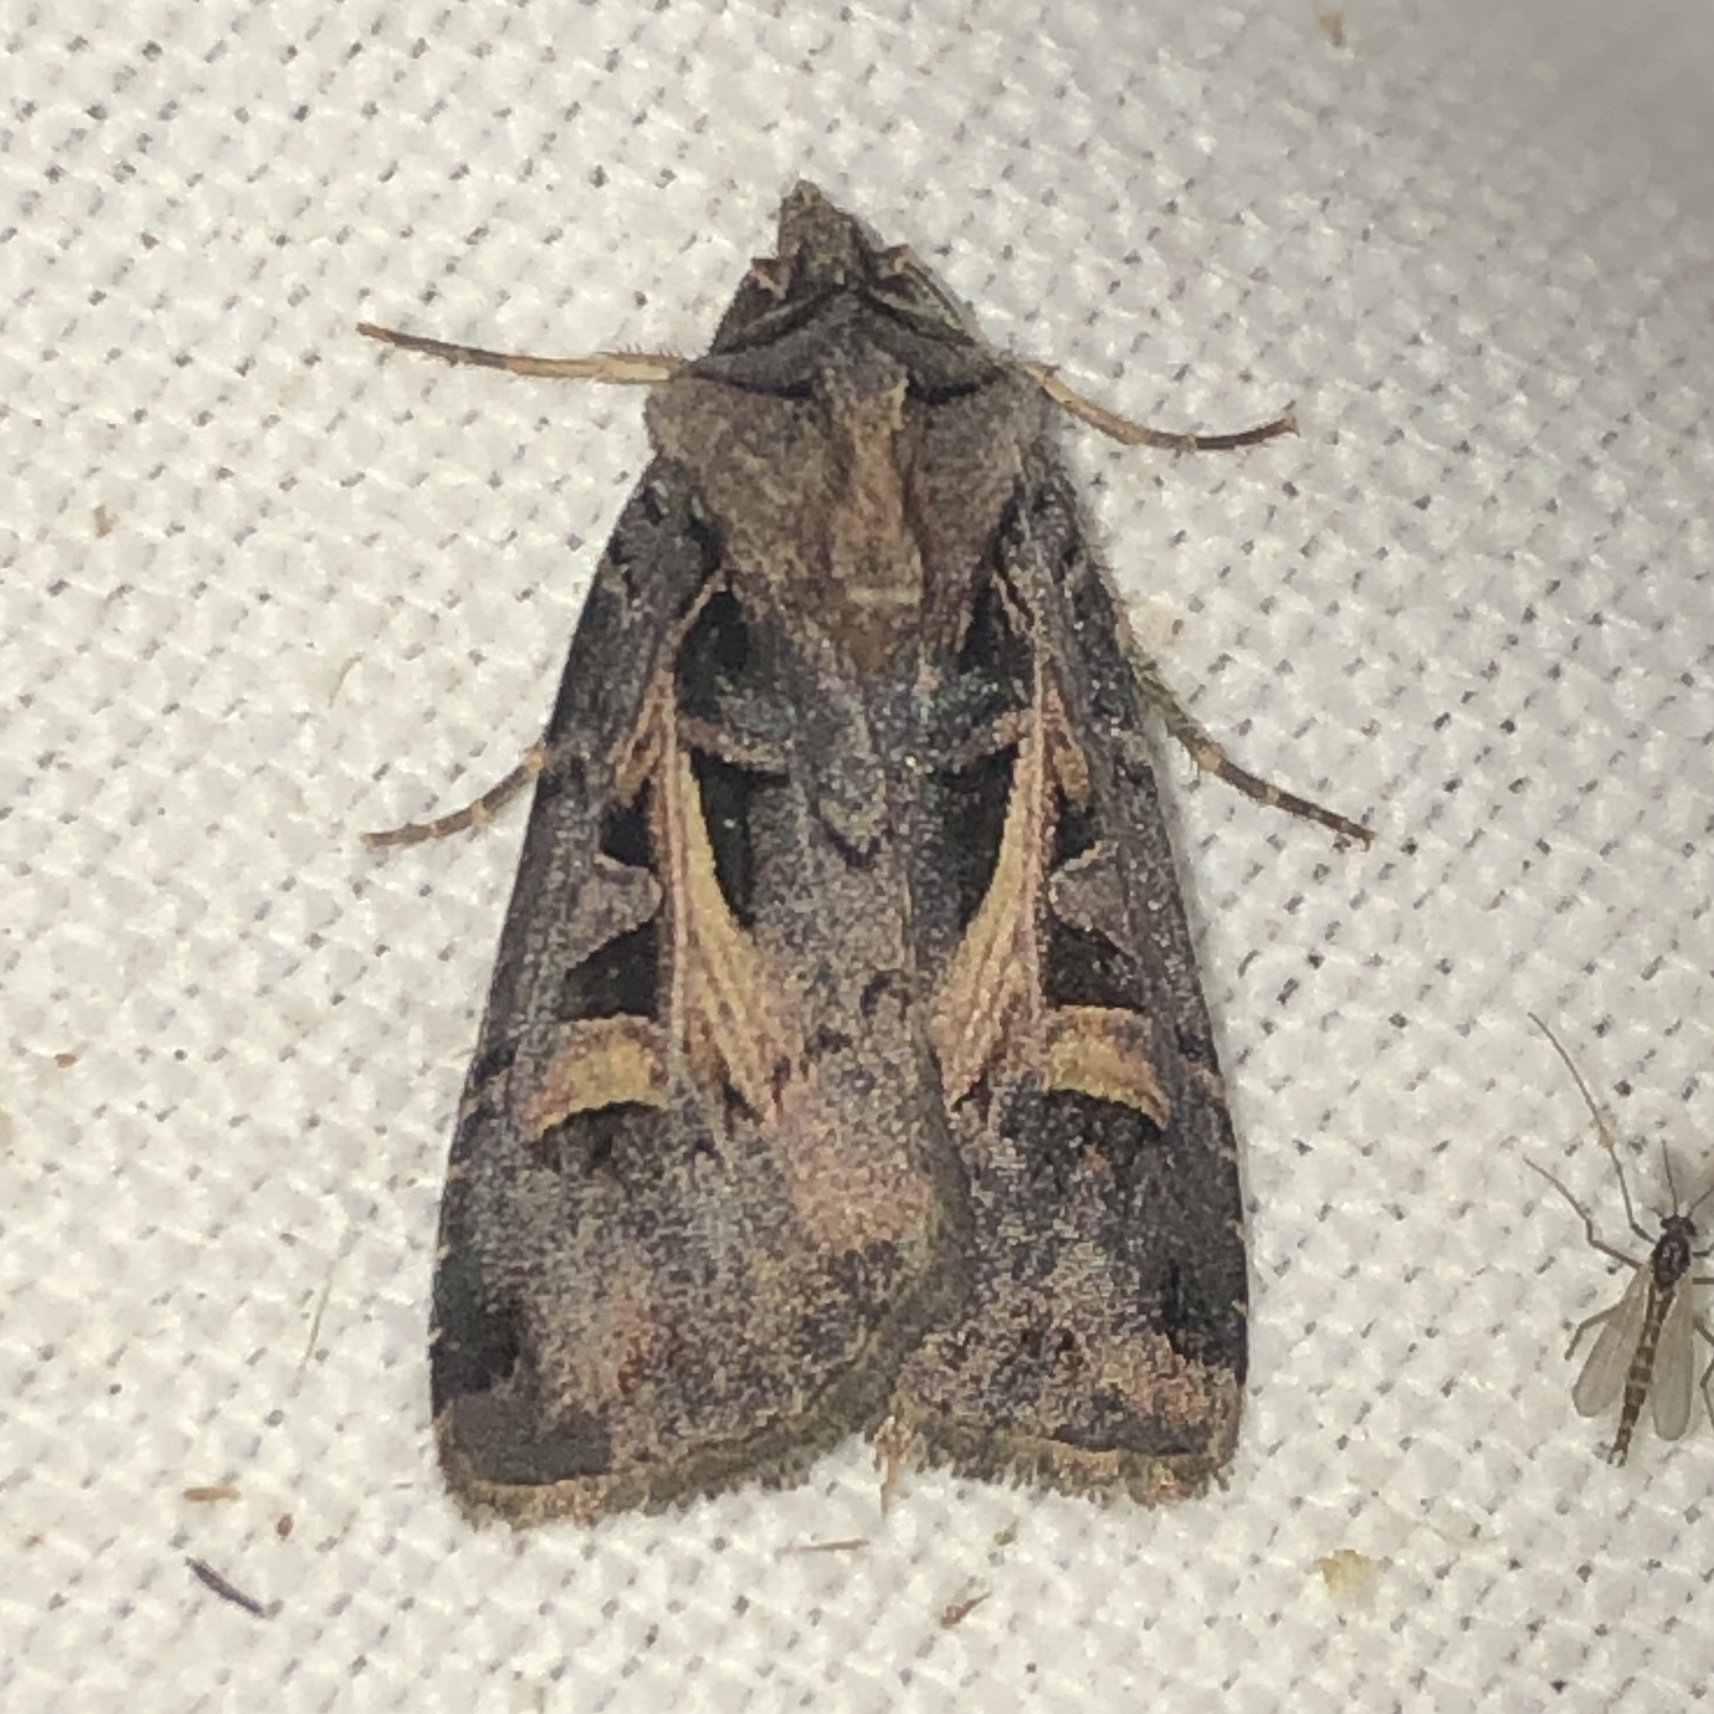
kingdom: Animalia
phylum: Arthropoda
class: Insecta
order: Lepidoptera
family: Noctuidae
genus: Feltia
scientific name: Feltia herilis
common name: Master's dart
